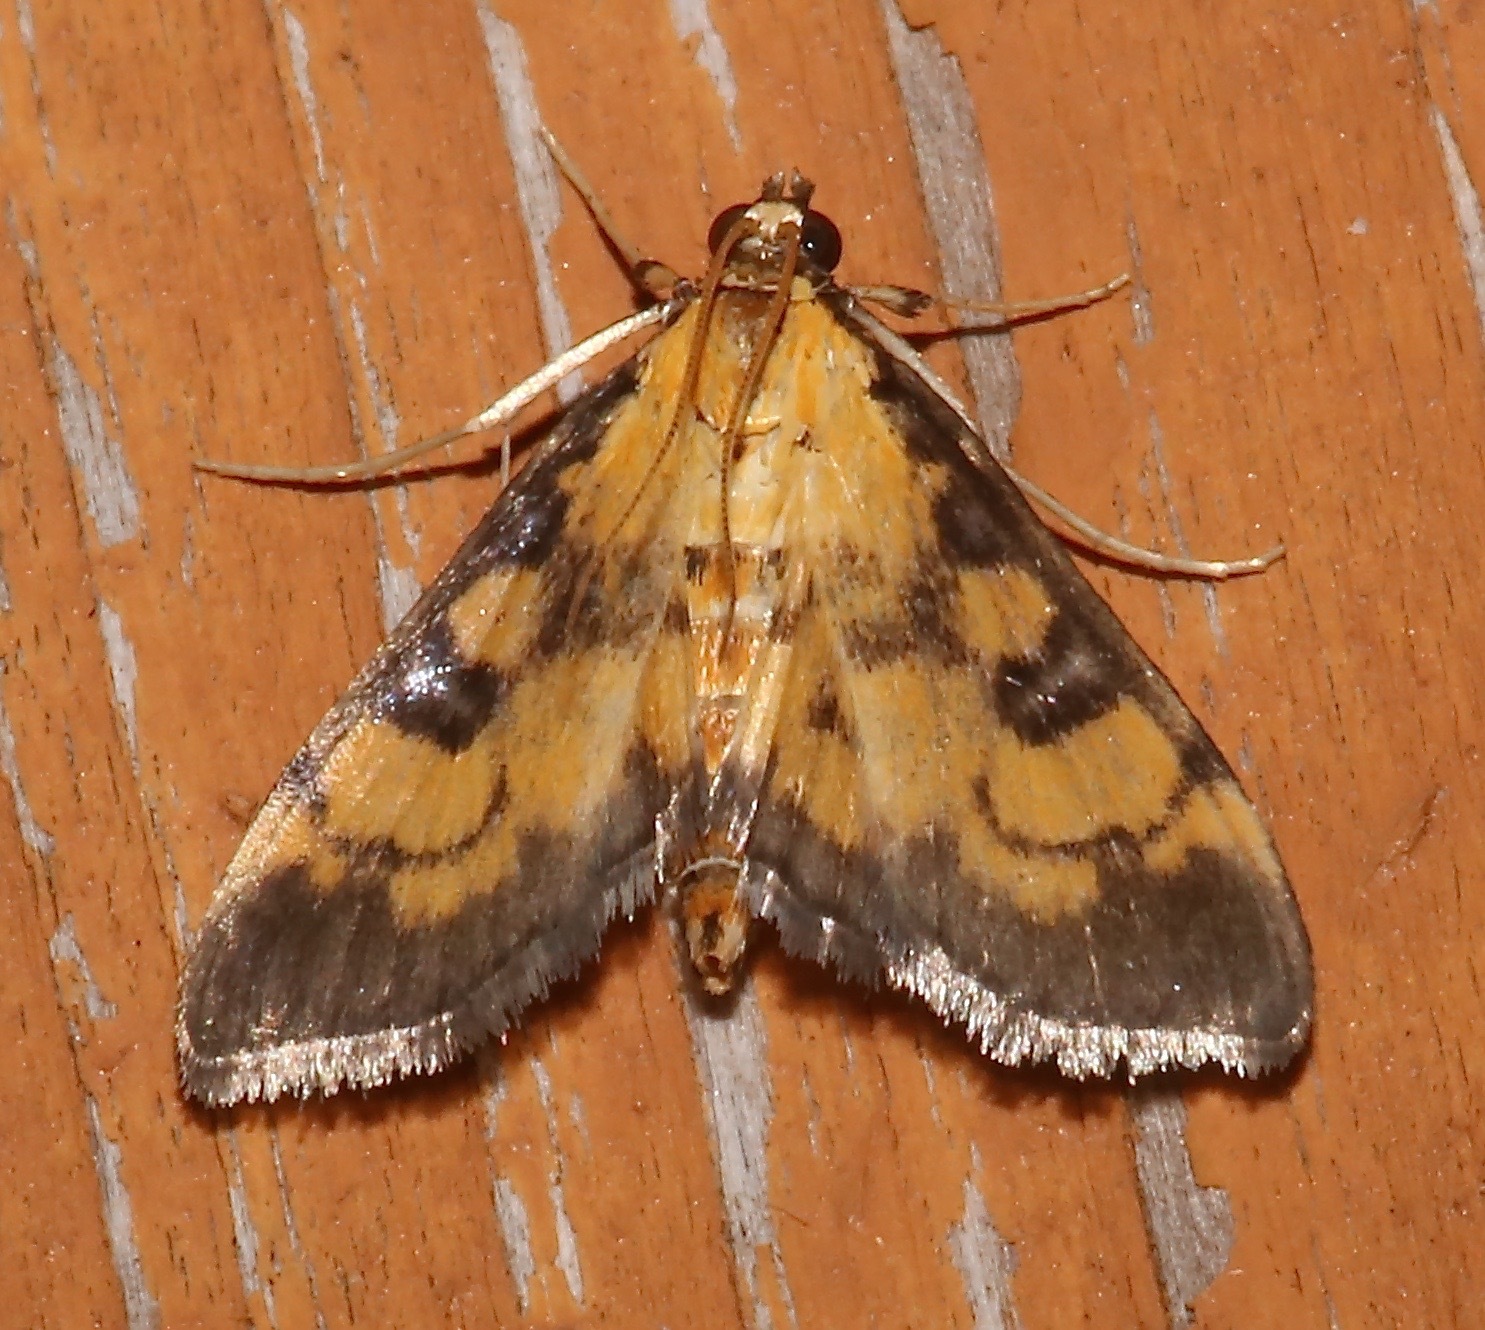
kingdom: Animalia
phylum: Arthropoda
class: Insecta
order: Lepidoptera
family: Crambidae
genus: Ategumia
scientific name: Ategumia ebulealis
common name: Moth
